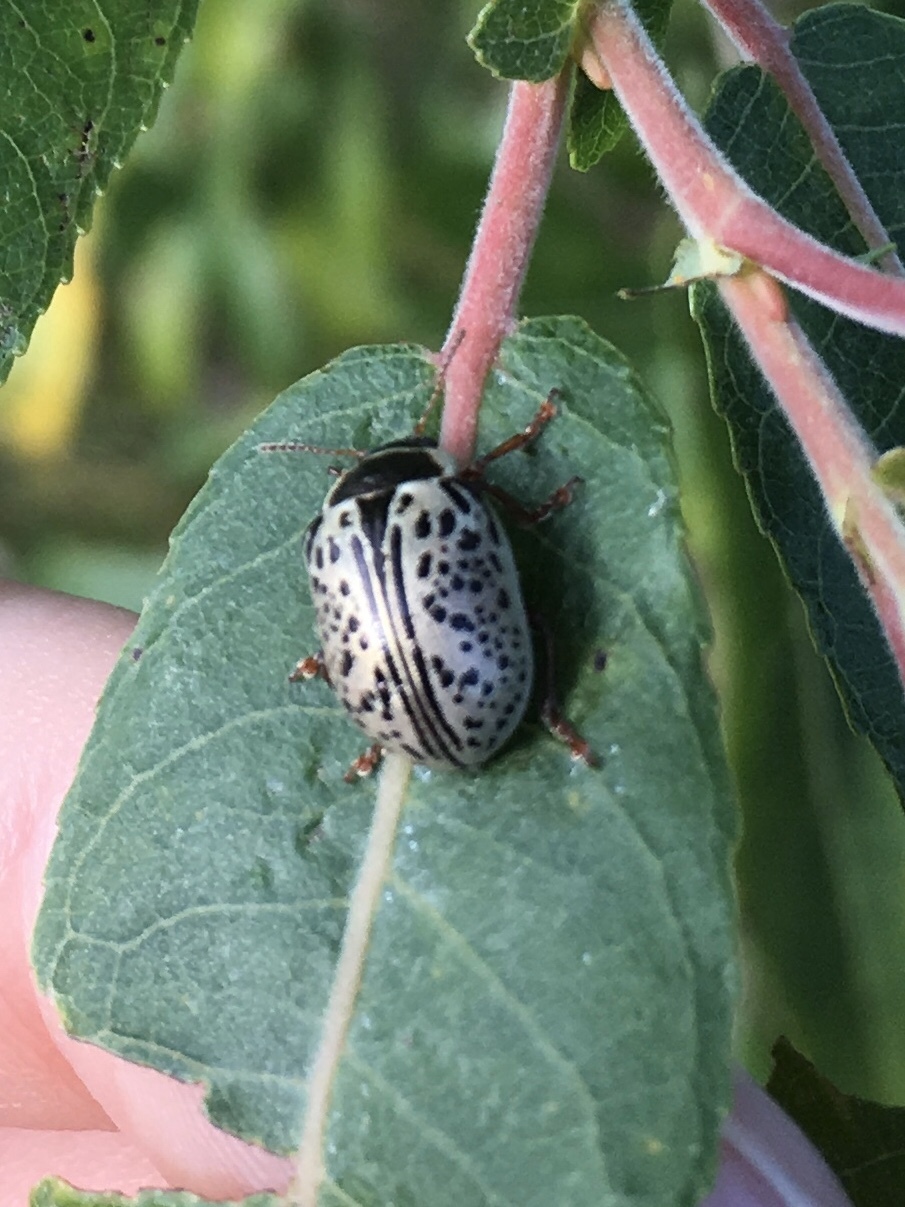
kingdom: Animalia
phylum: Arthropoda
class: Insecta
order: Coleoptera
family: Chrysomelidae
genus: Calligrapha
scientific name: Calligrapha multipunctata
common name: Common willow calligrapher beetle
